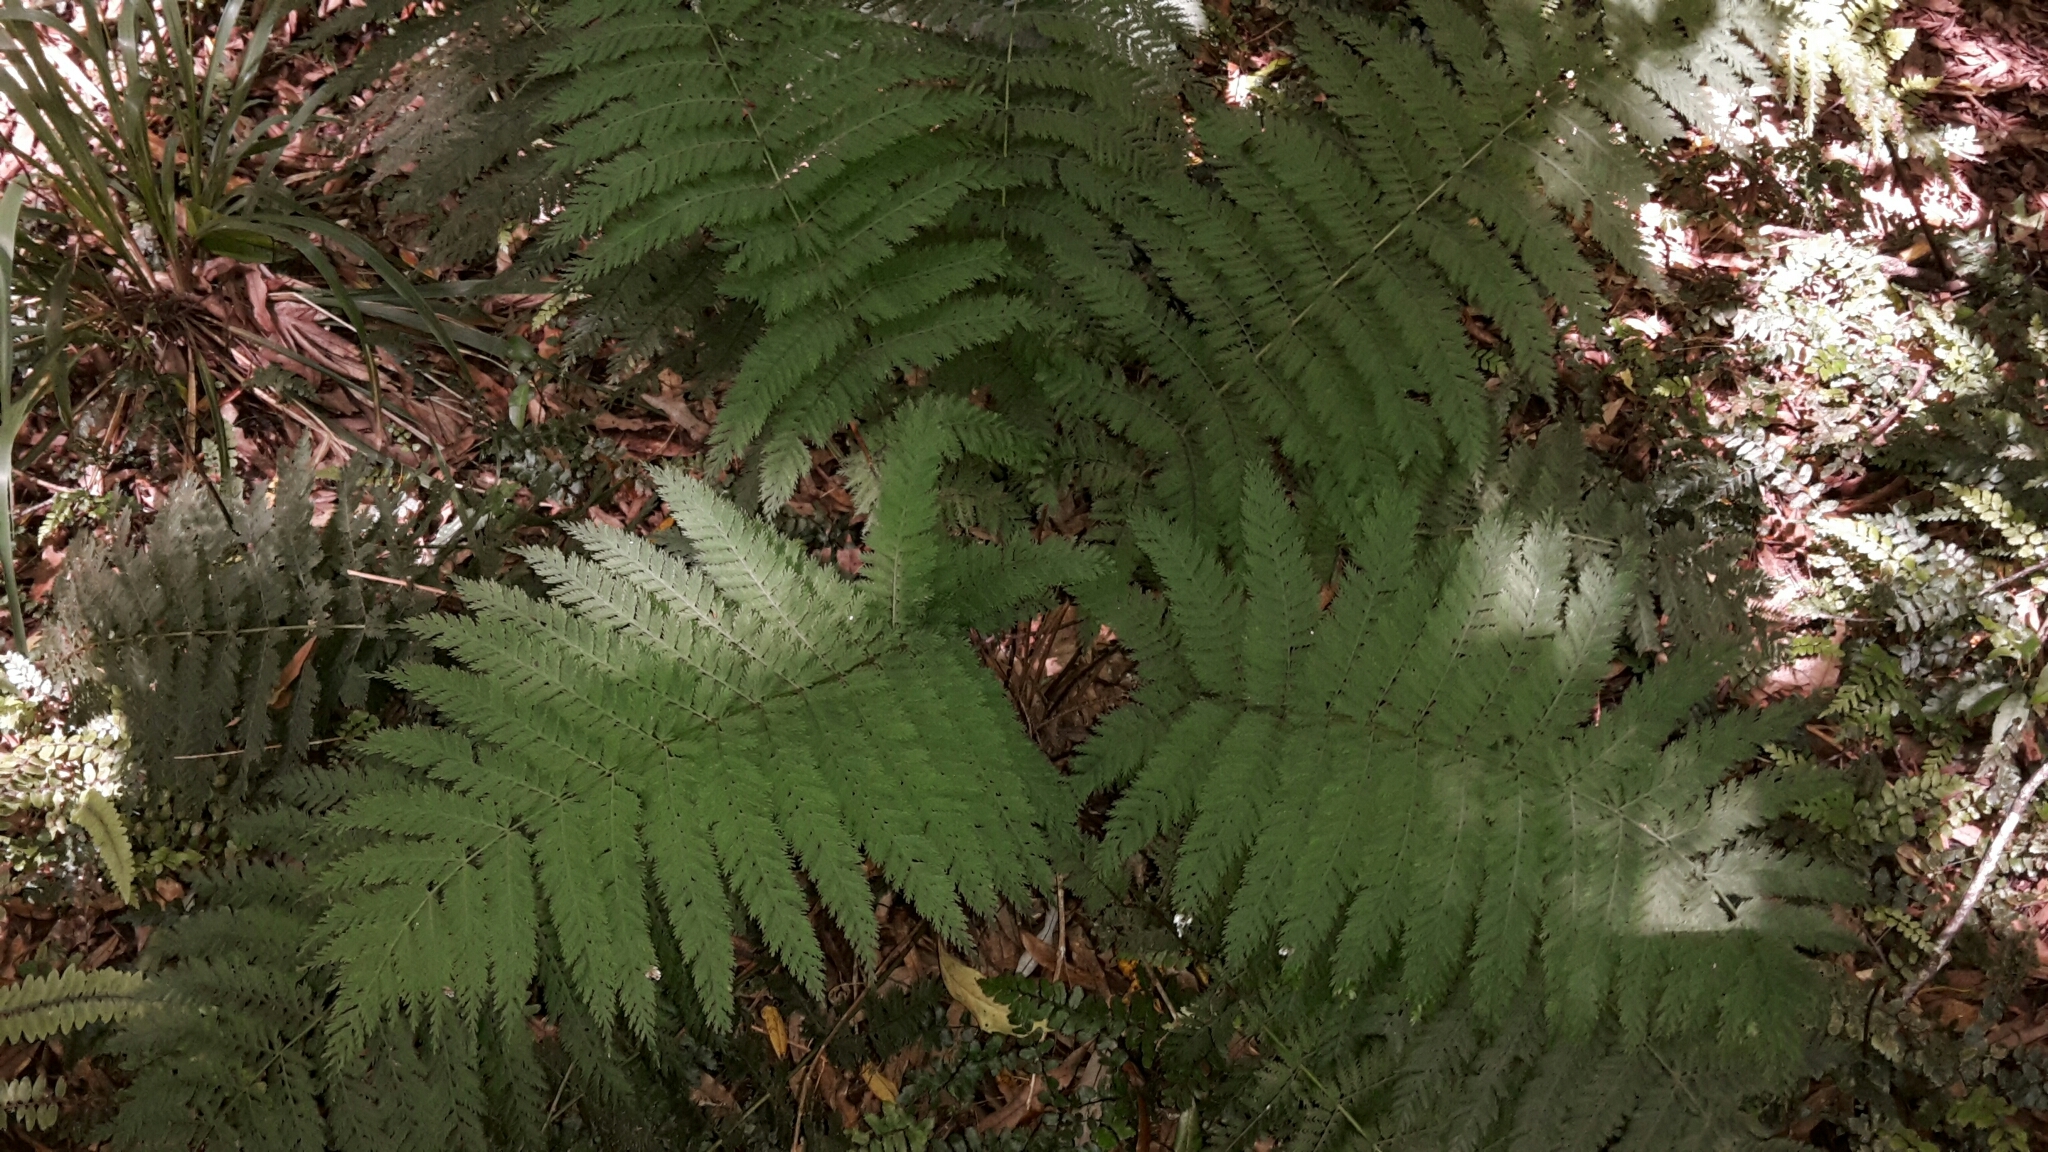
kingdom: Plantae
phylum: Tracheophyta
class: Polypodiopsida
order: Osmundales
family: Osmundaceae
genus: Leptopteris
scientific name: Leptopteris hymenophylloides
